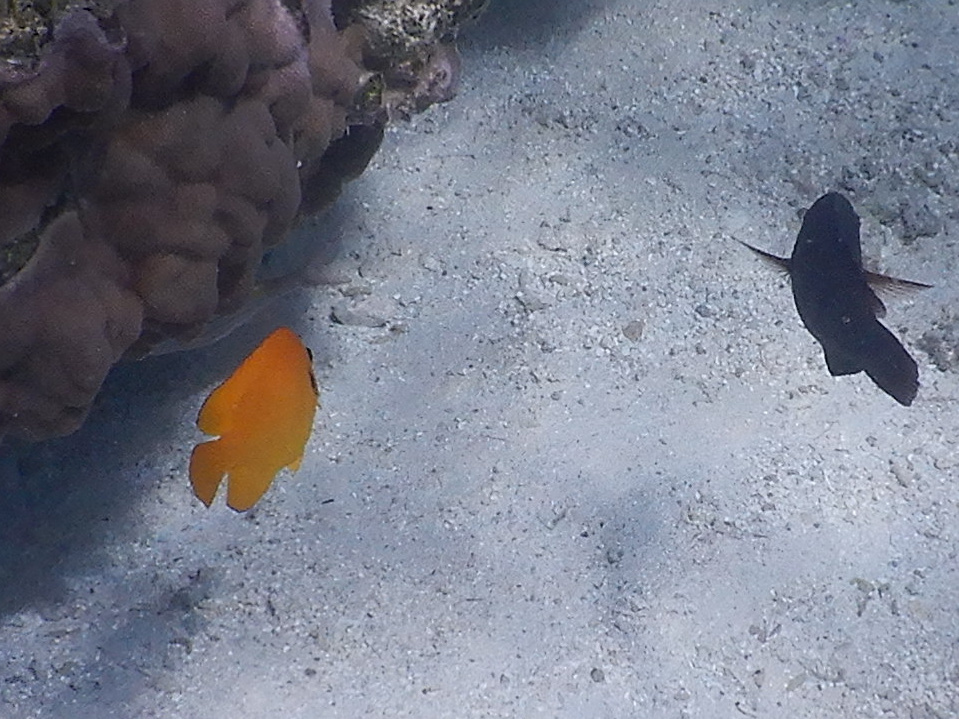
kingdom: Animalia
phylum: Chordata
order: Perciformes
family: Pomacanthidae
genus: Centropyge
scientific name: Centropyge flavissima
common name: Lemonpeel angelfish
